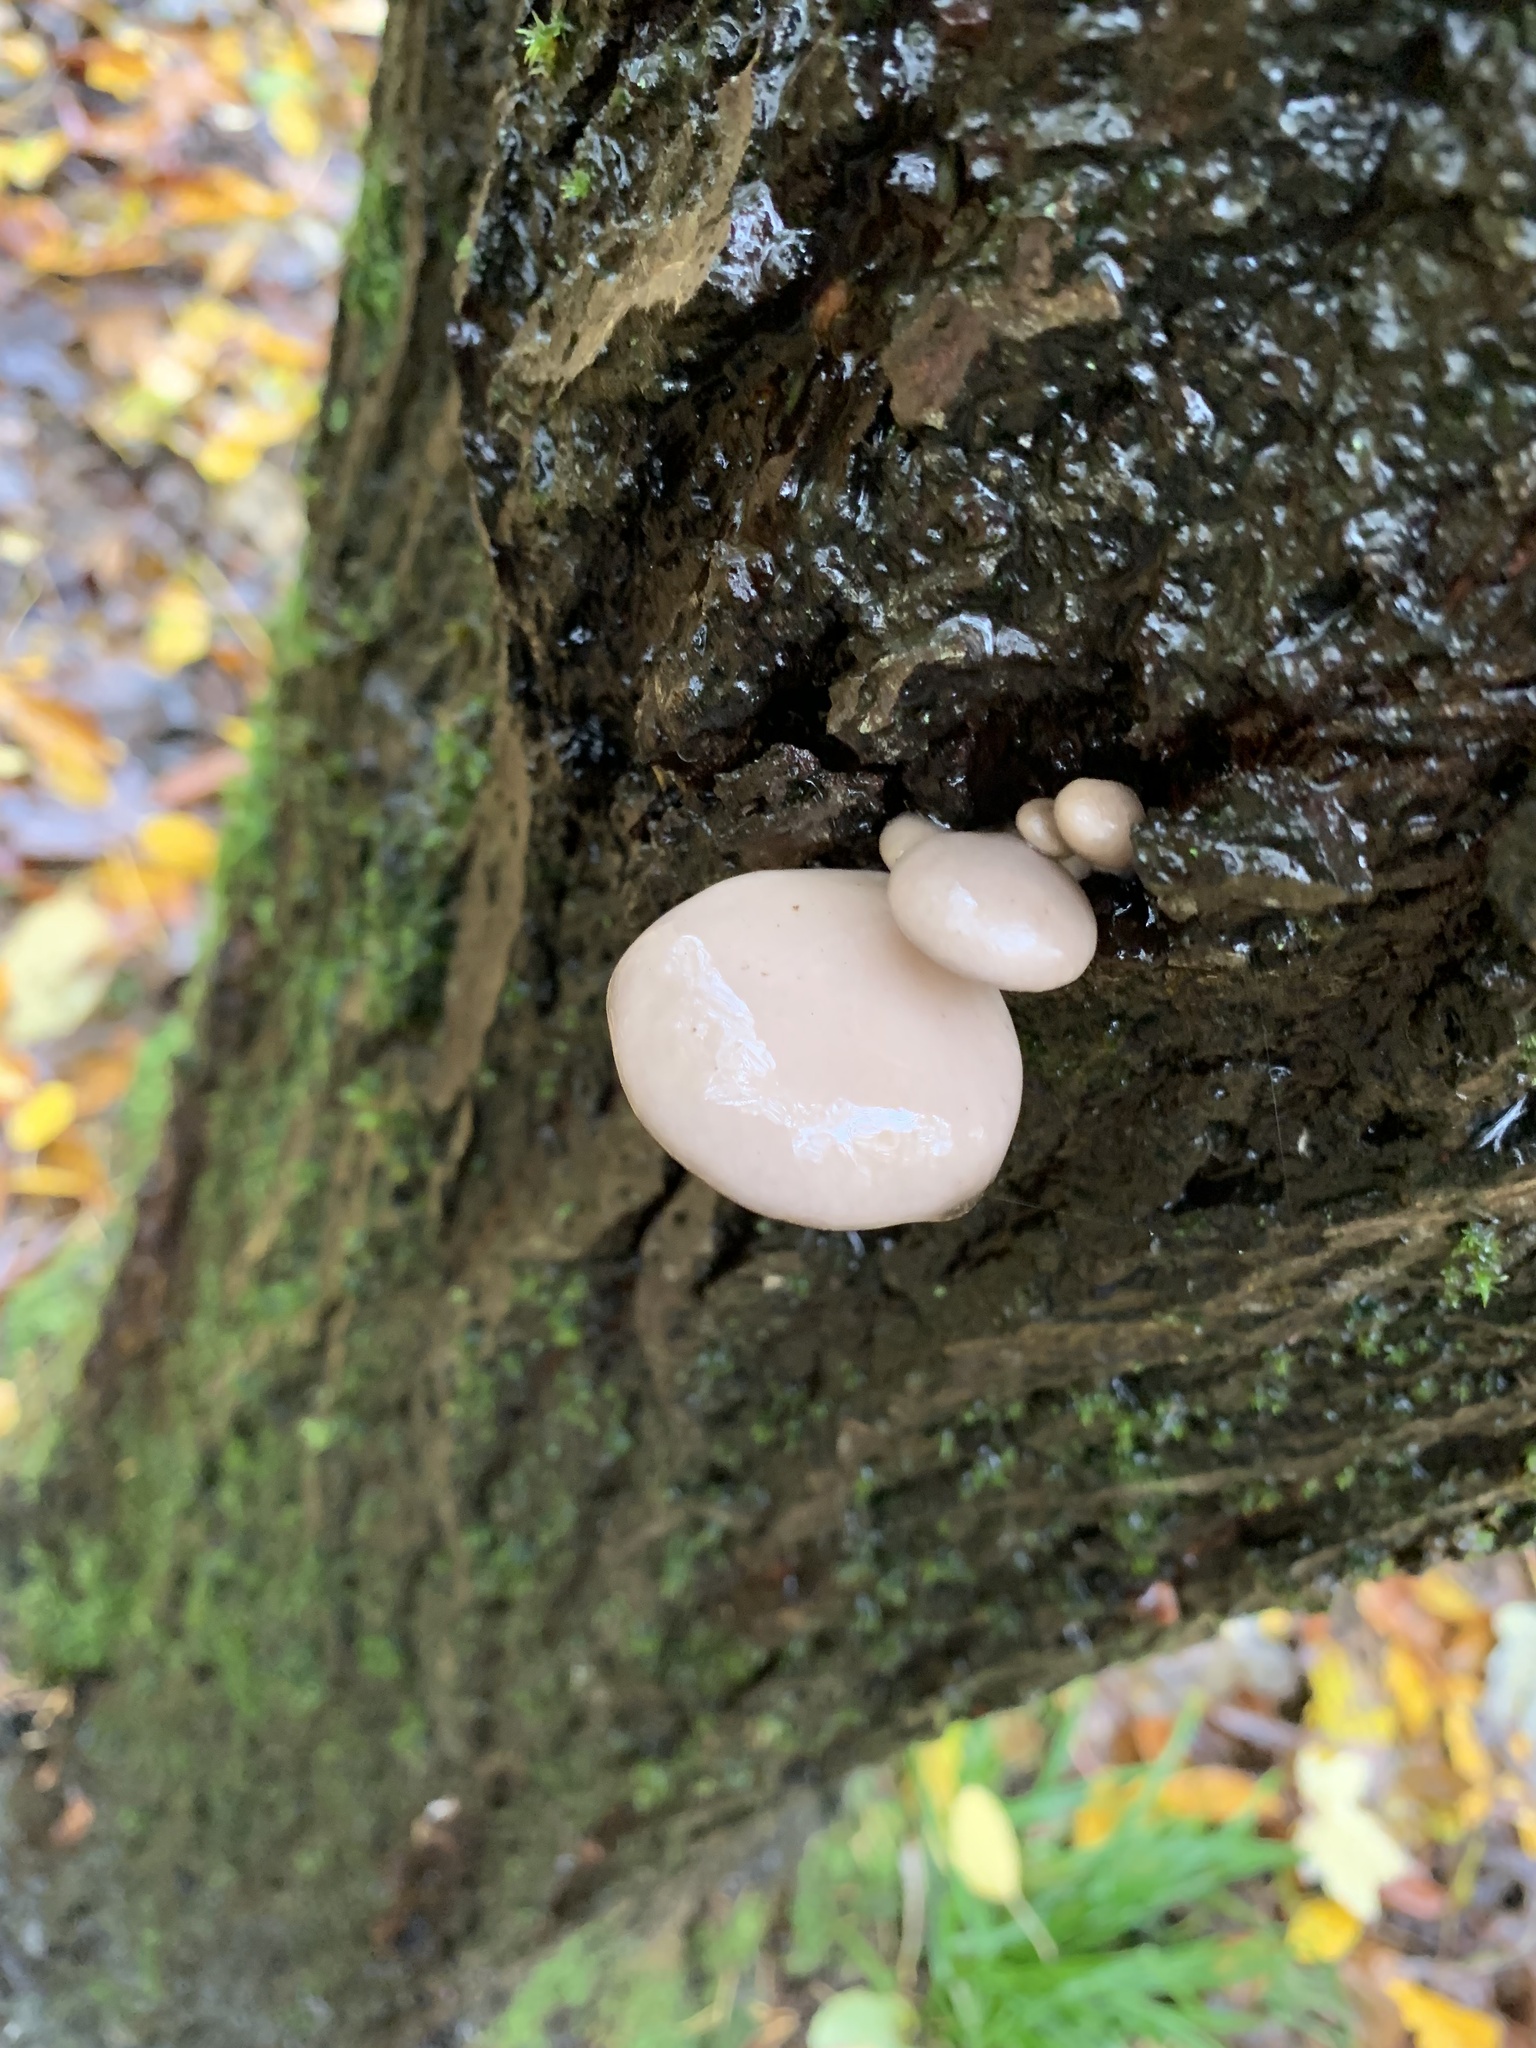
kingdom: Fungi
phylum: Basidiomycota
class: Agaricomycetes
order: Agaricales
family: Pleurotaceae
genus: Pleurotus
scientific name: Pleurotus ostreatus
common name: Oyster mushroom
